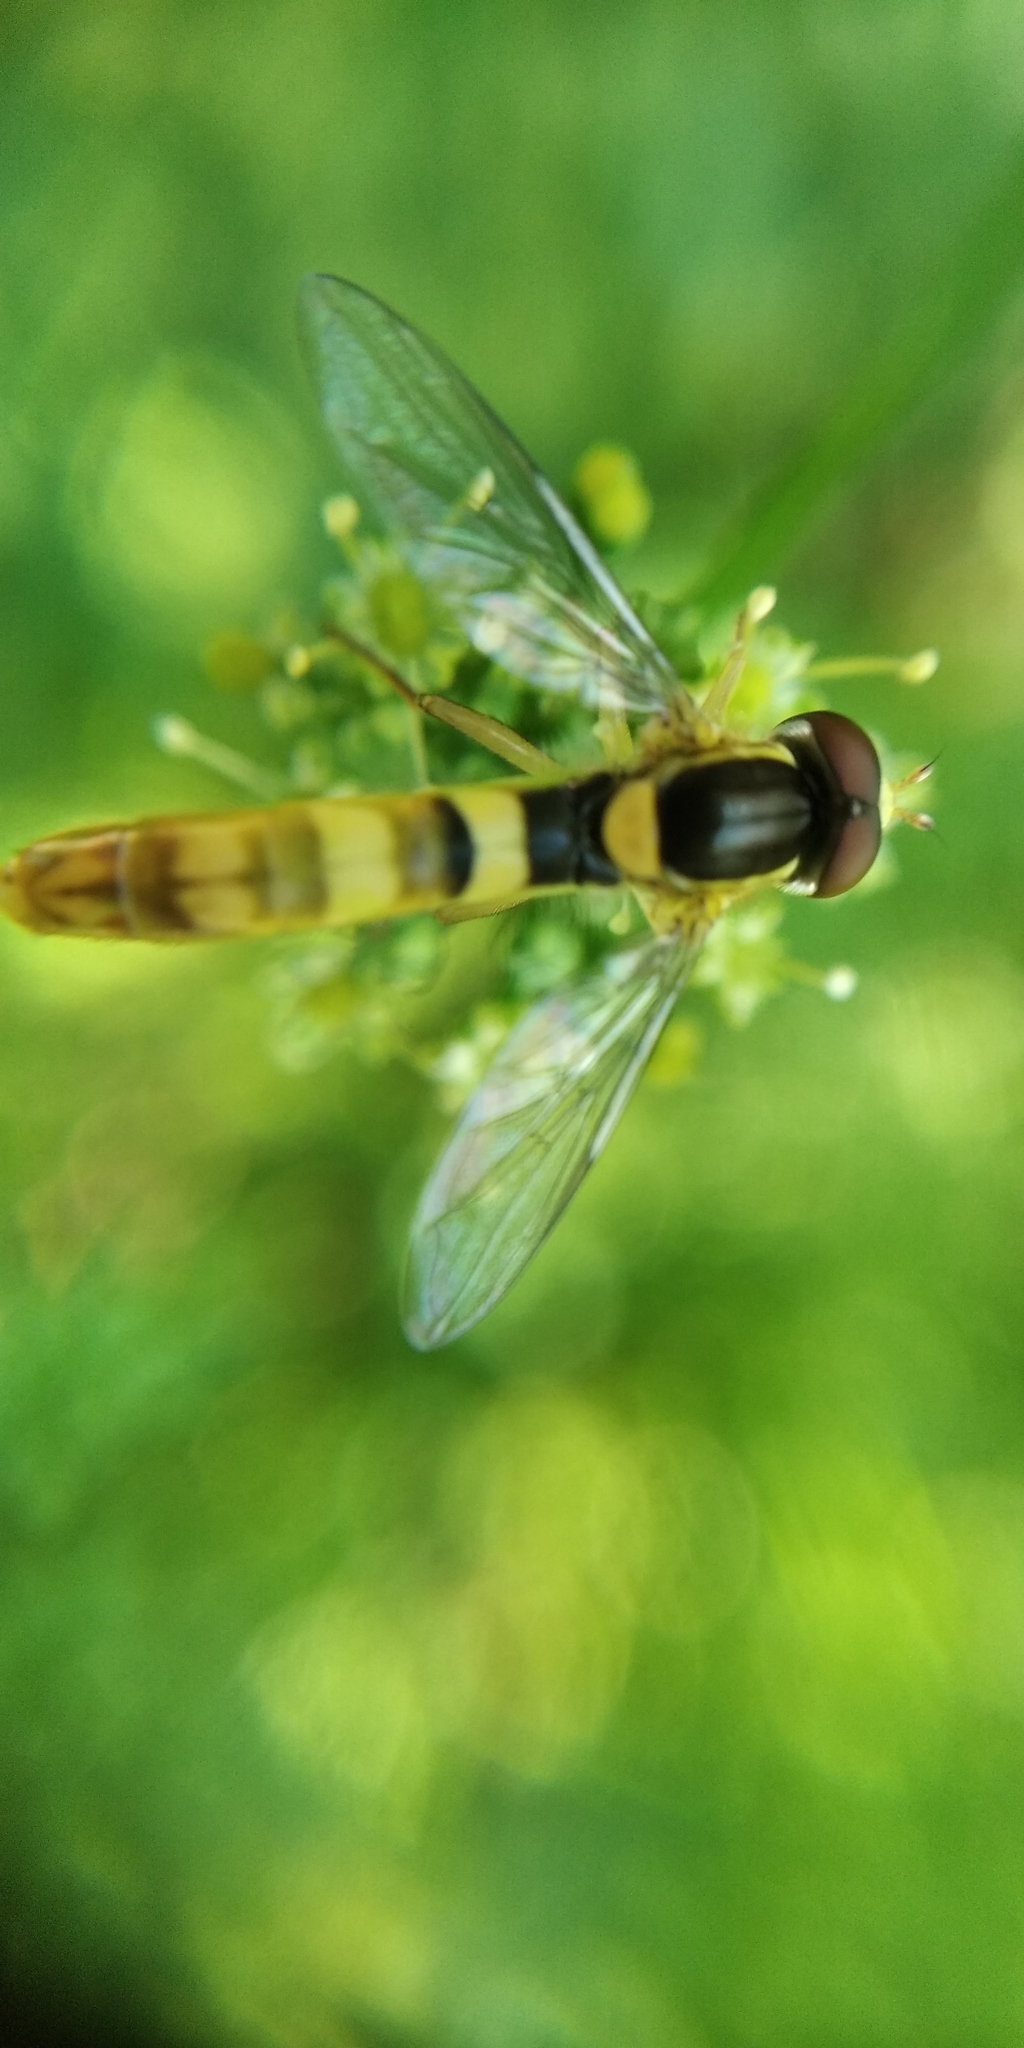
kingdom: Animalia
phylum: Arthropoda
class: Insecta
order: Diptera
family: Syrphidae
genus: Sphaerophoria
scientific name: Sphaerophoria scripta
